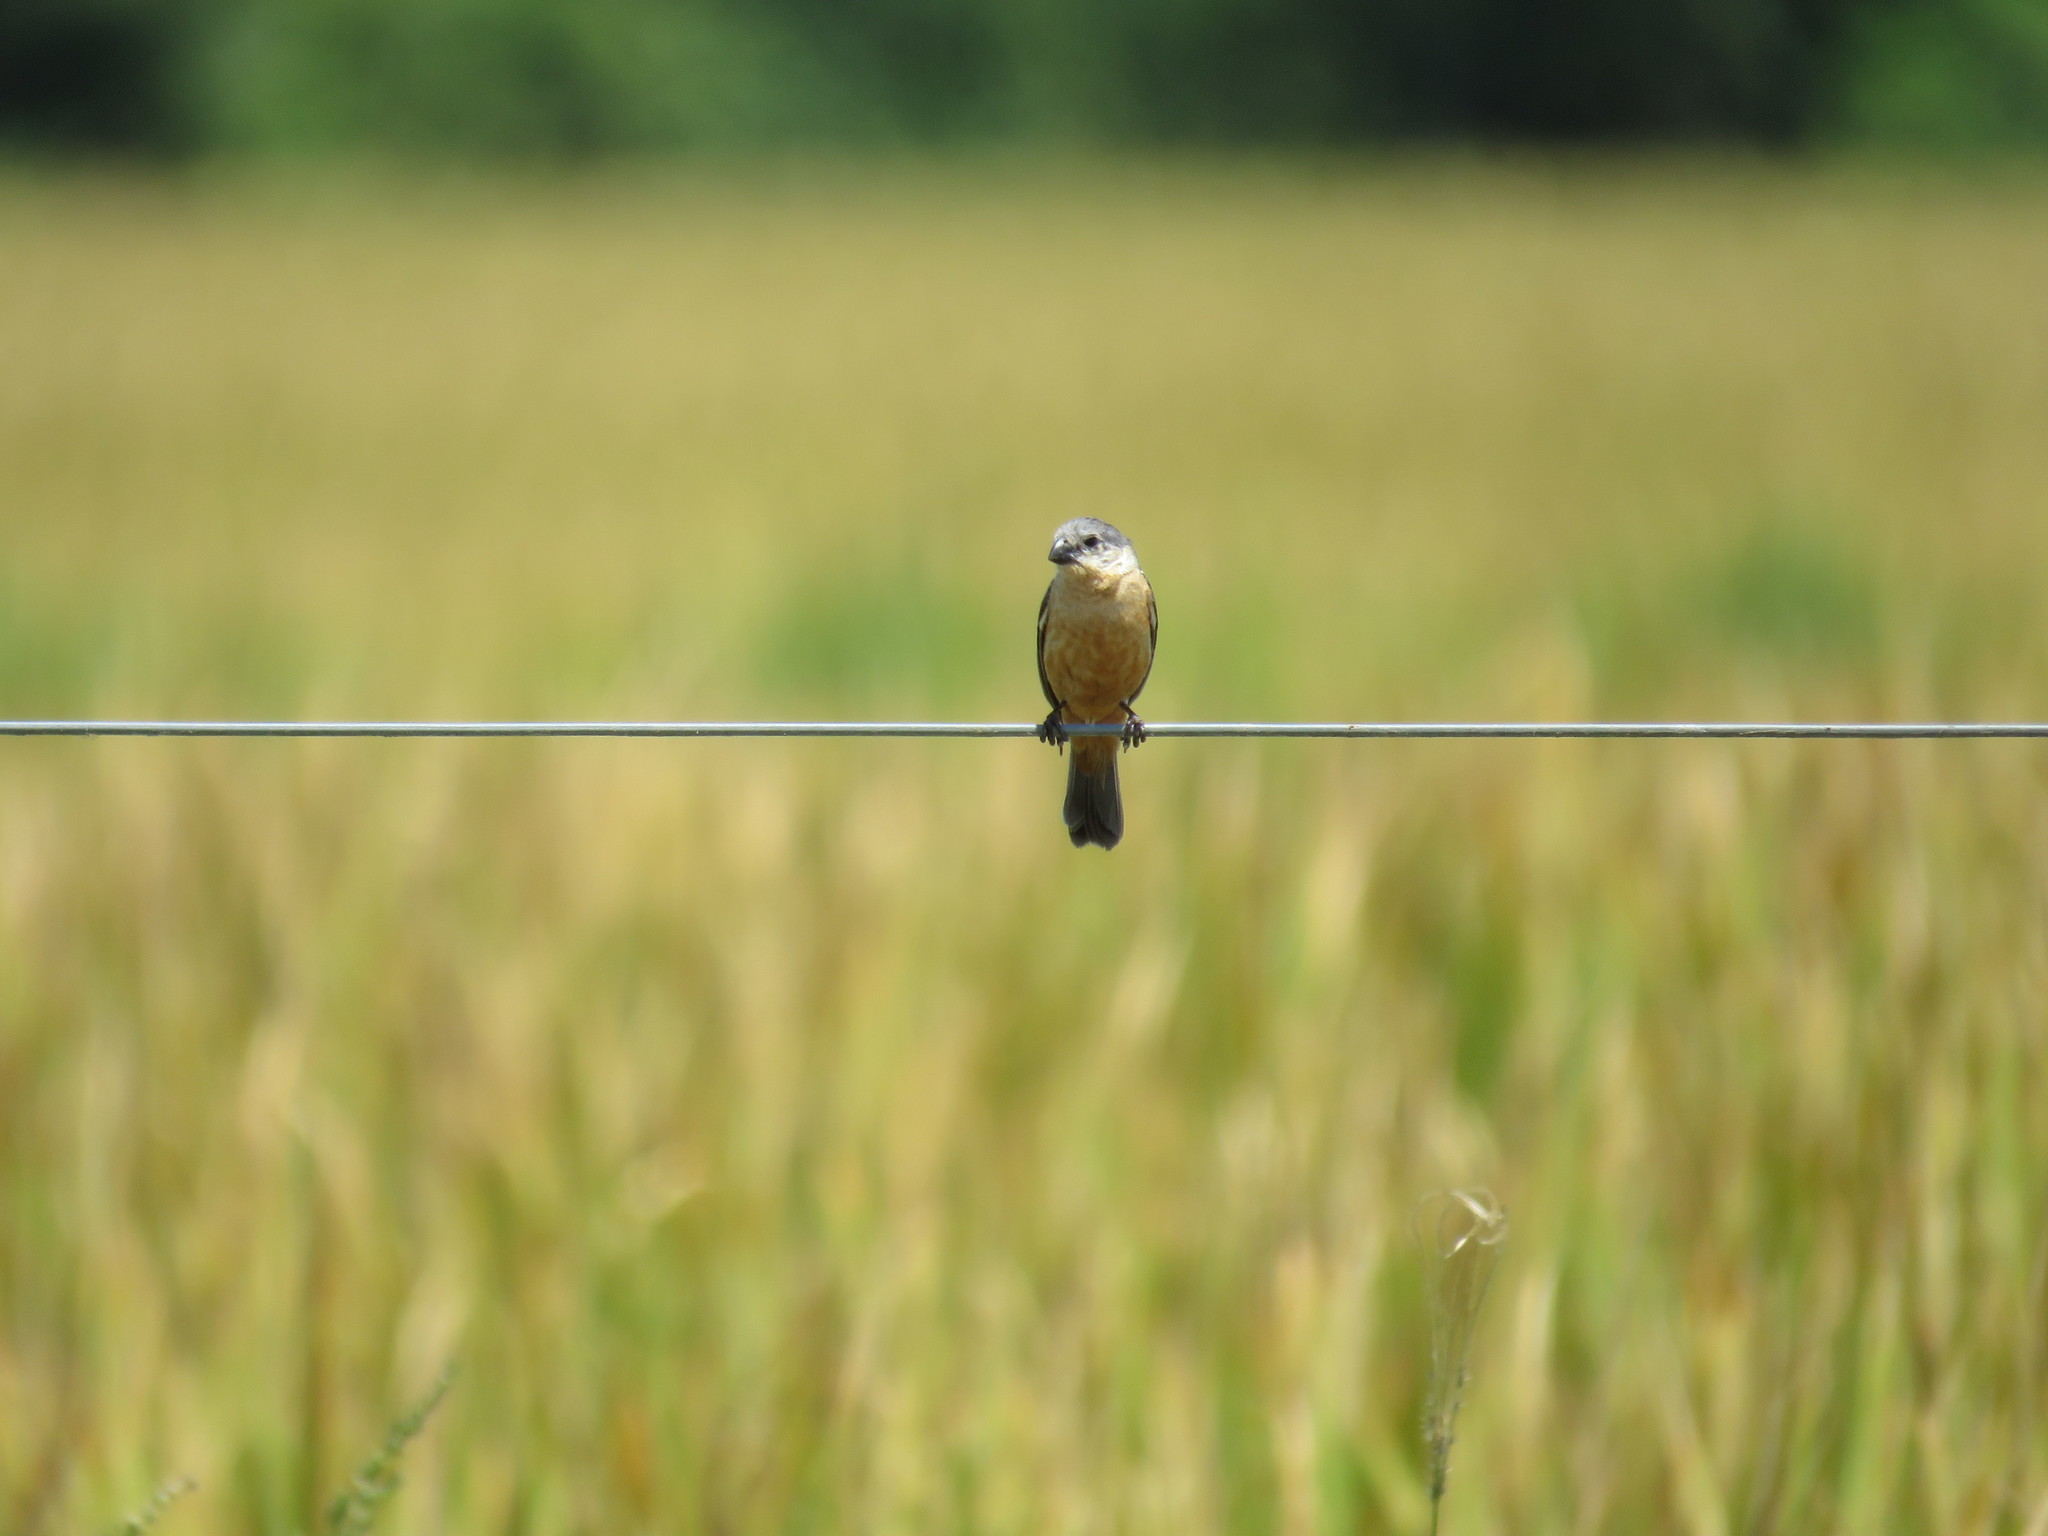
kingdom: Animalia
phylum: Chordata
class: Aves
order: Passeriformes
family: Thraupidae
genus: Sporophila
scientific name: Sporophila hypoxantha
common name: Tawny-bellied seedeater
